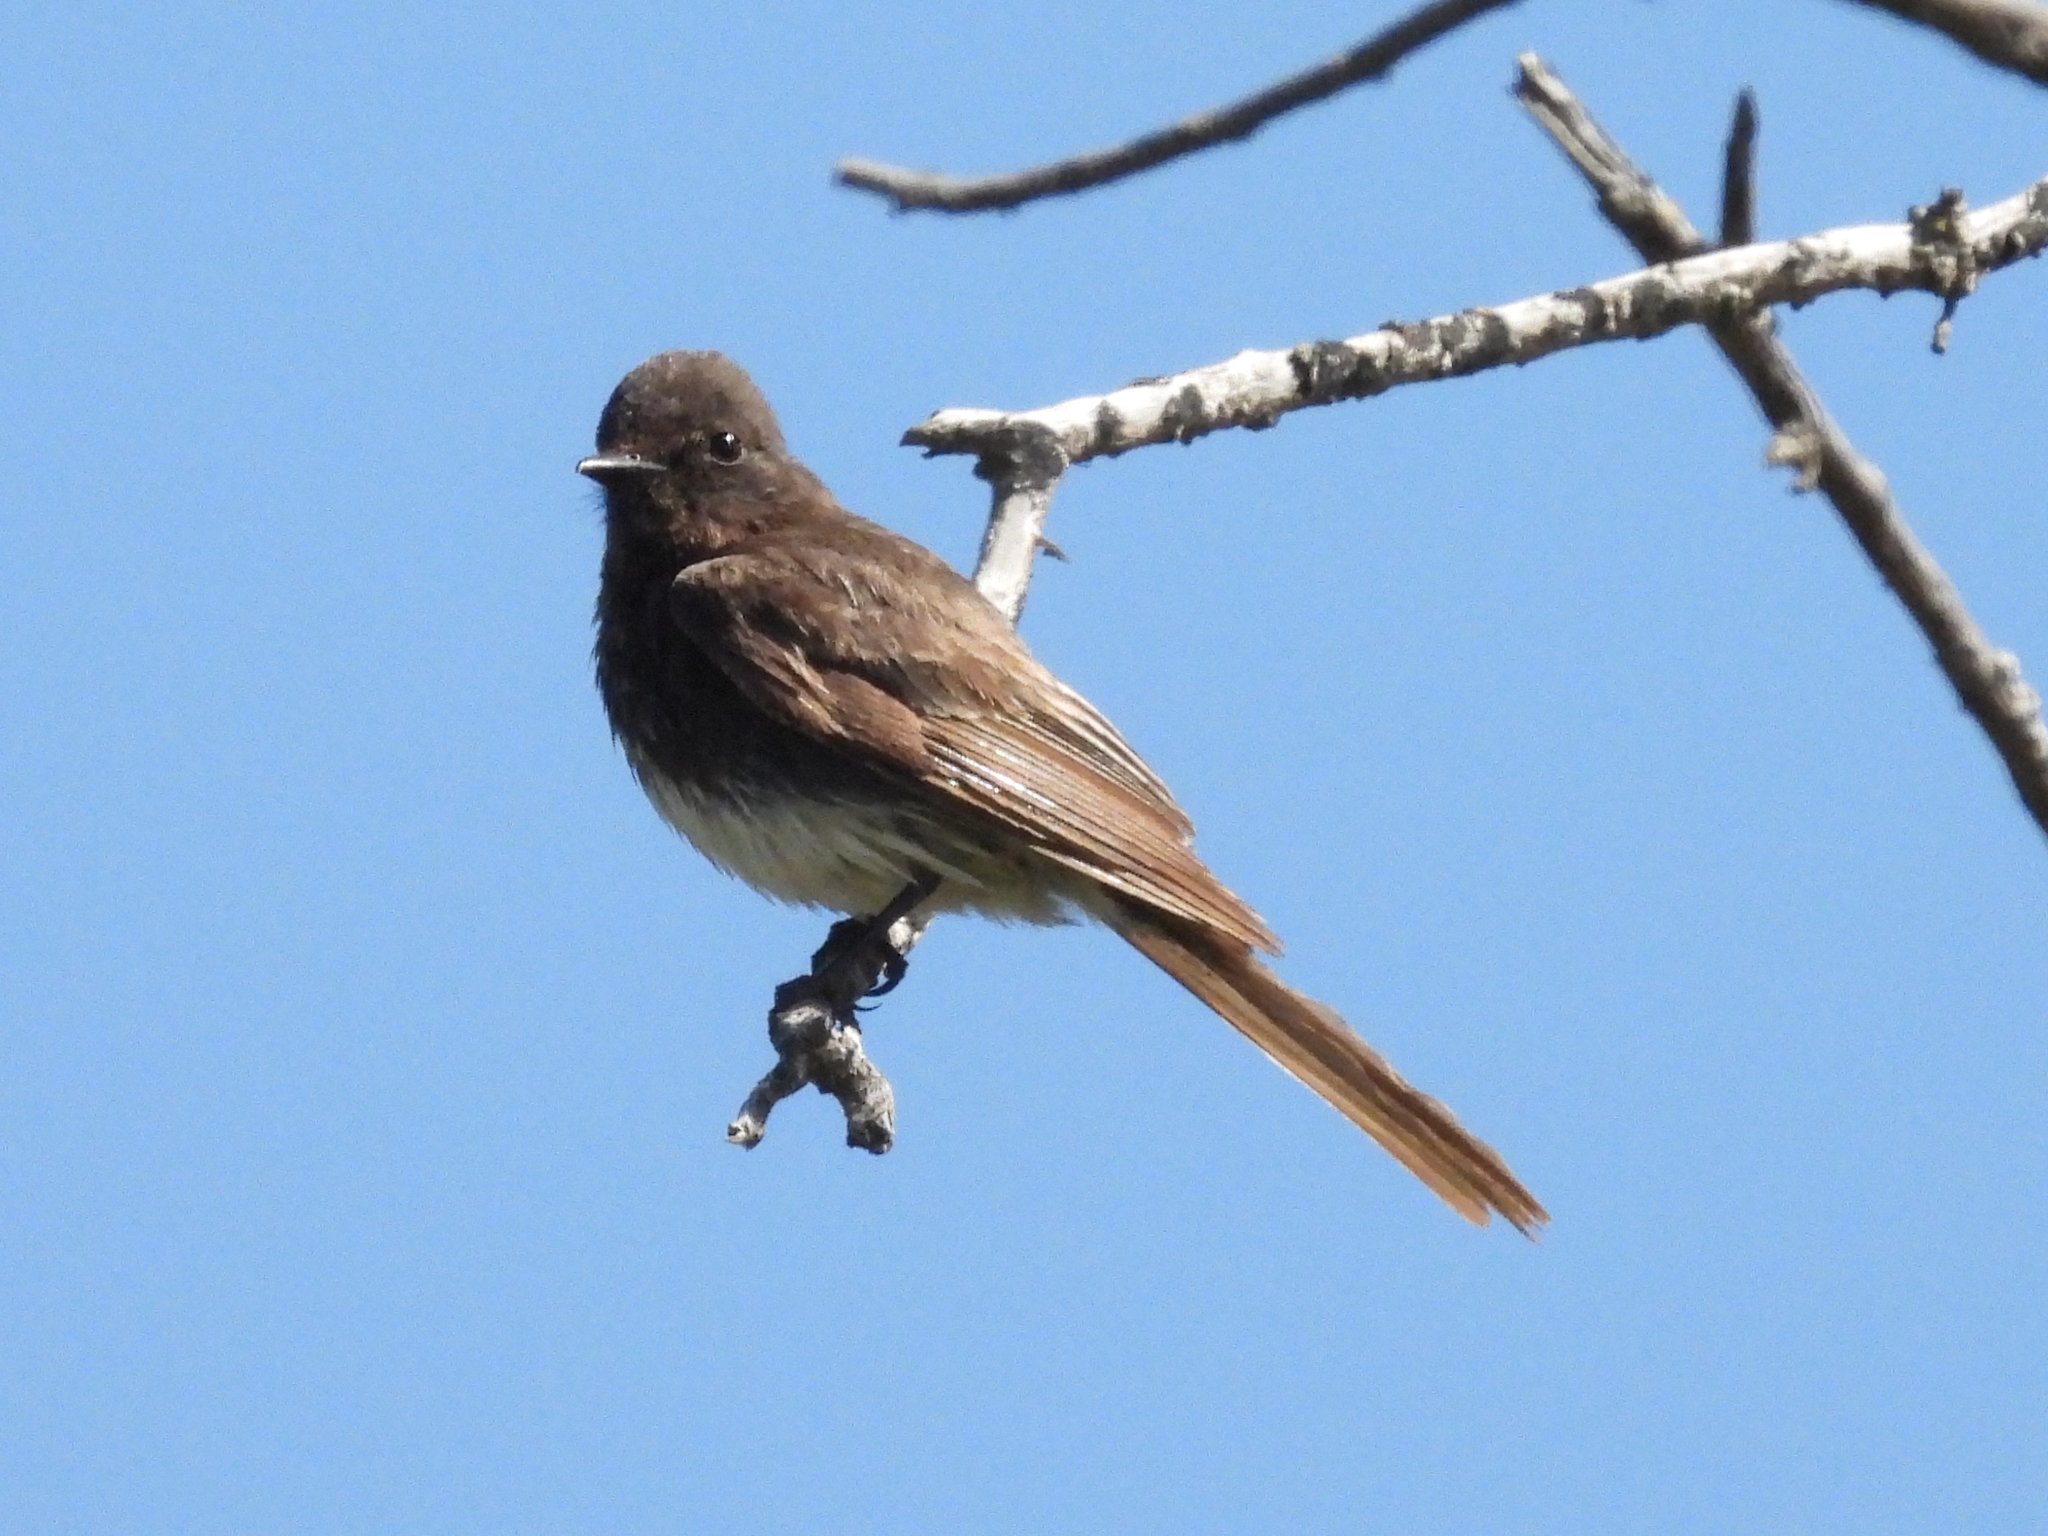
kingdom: Animalia
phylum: Chordata
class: Aves
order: Passeriformes
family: Tyrannidae
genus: Sayornis
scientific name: Sayornis nigricans
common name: Black phoebe
